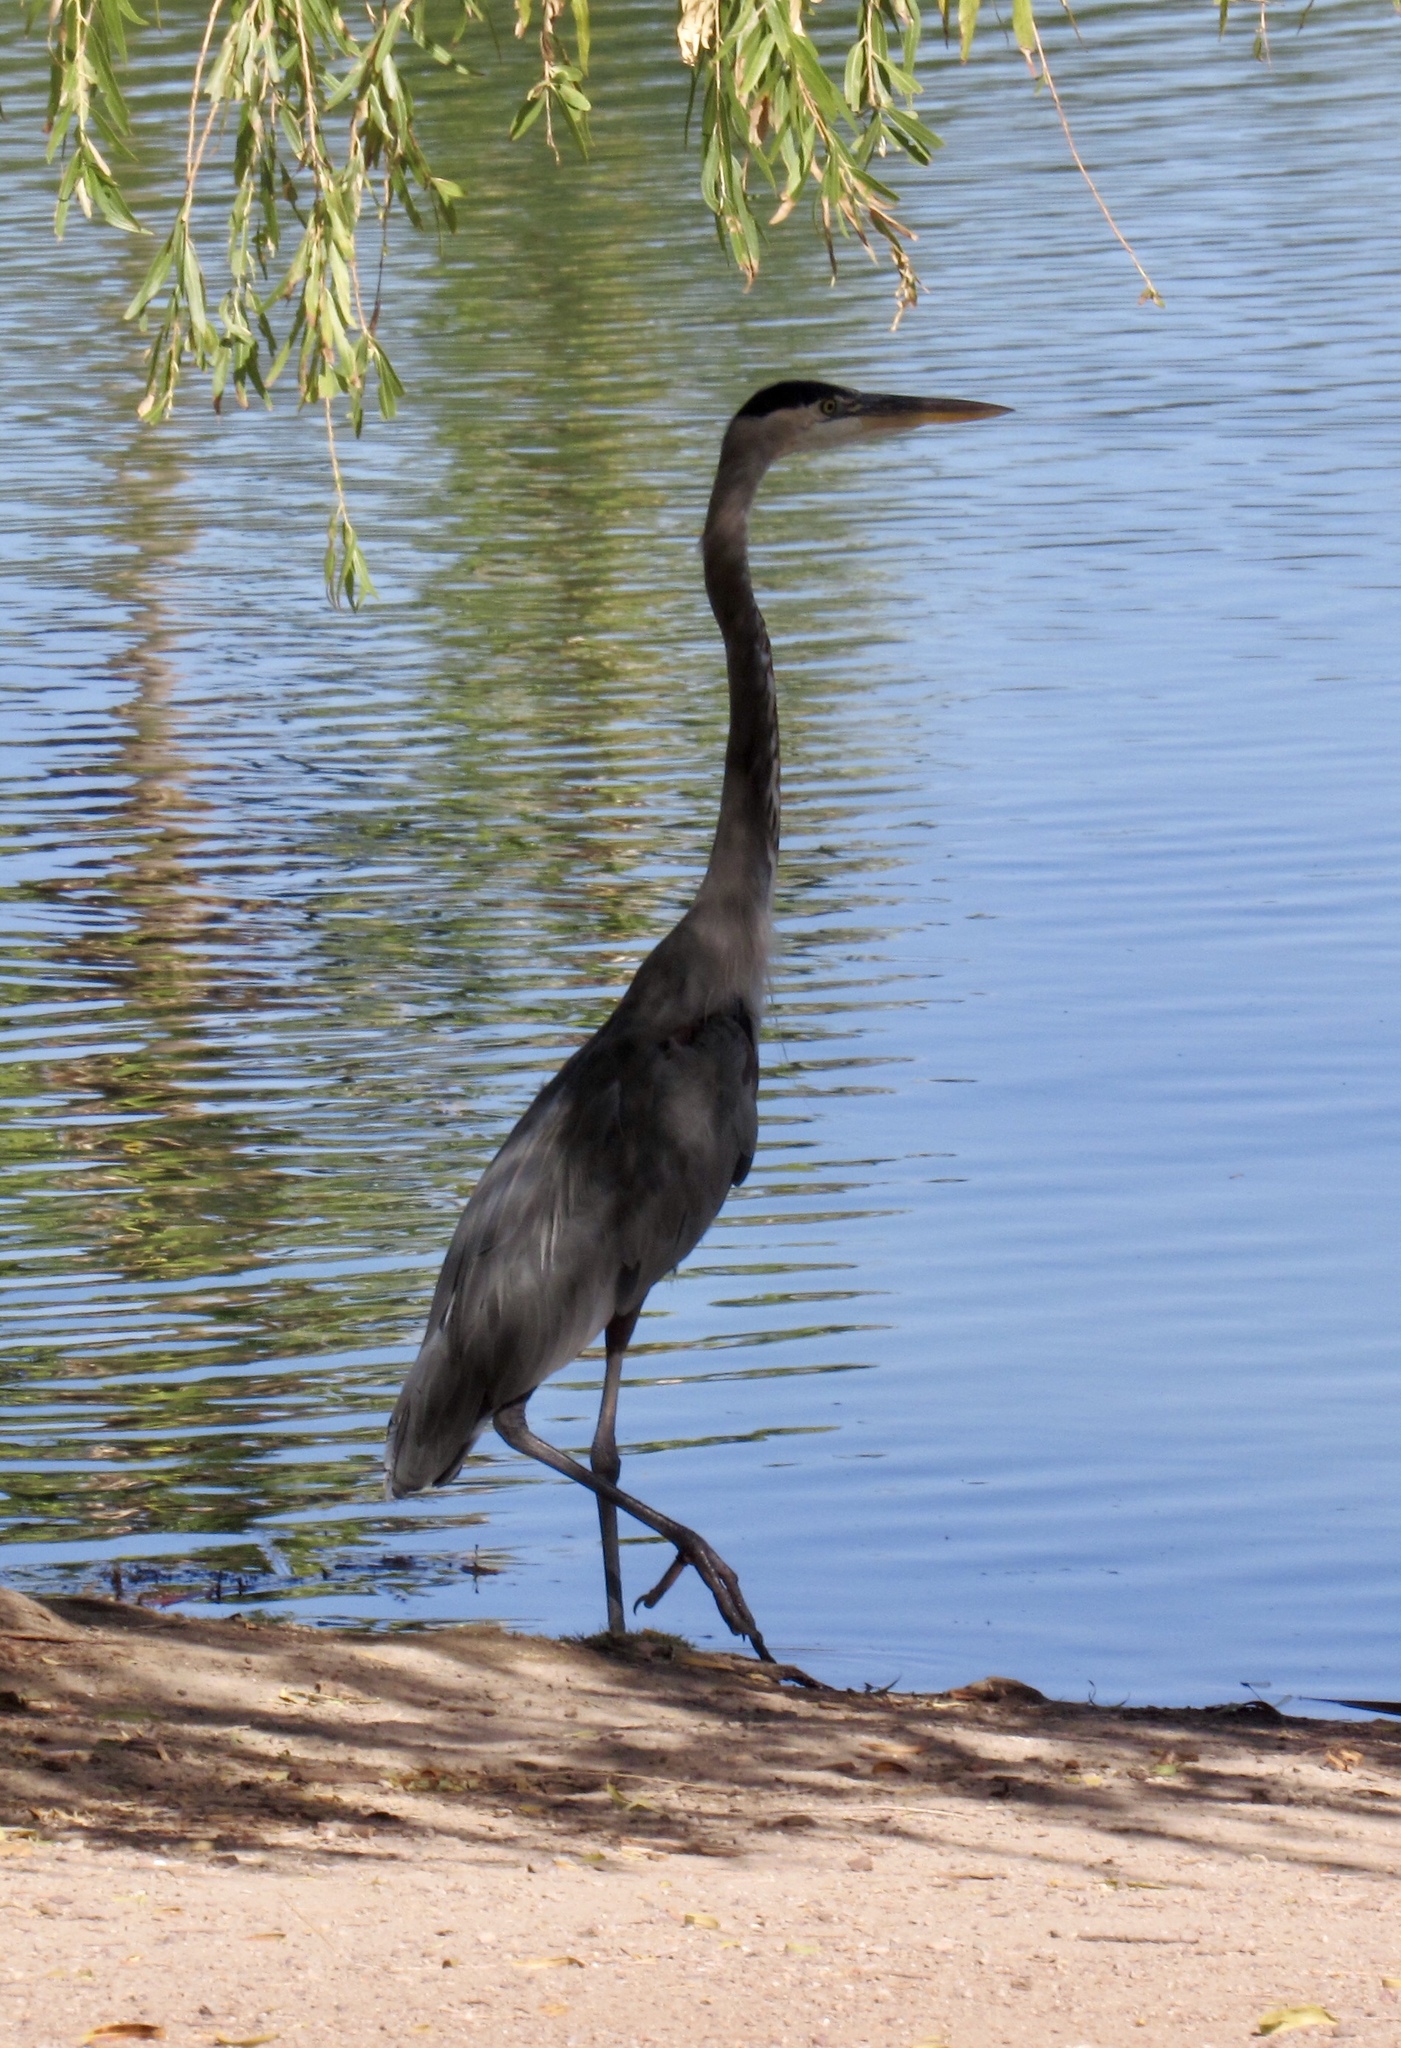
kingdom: Animalia
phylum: Chordata
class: Aves
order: Pelecaniformes
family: Ardeidae
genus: Ardea
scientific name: Ardea herodias
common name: Great blue heron
